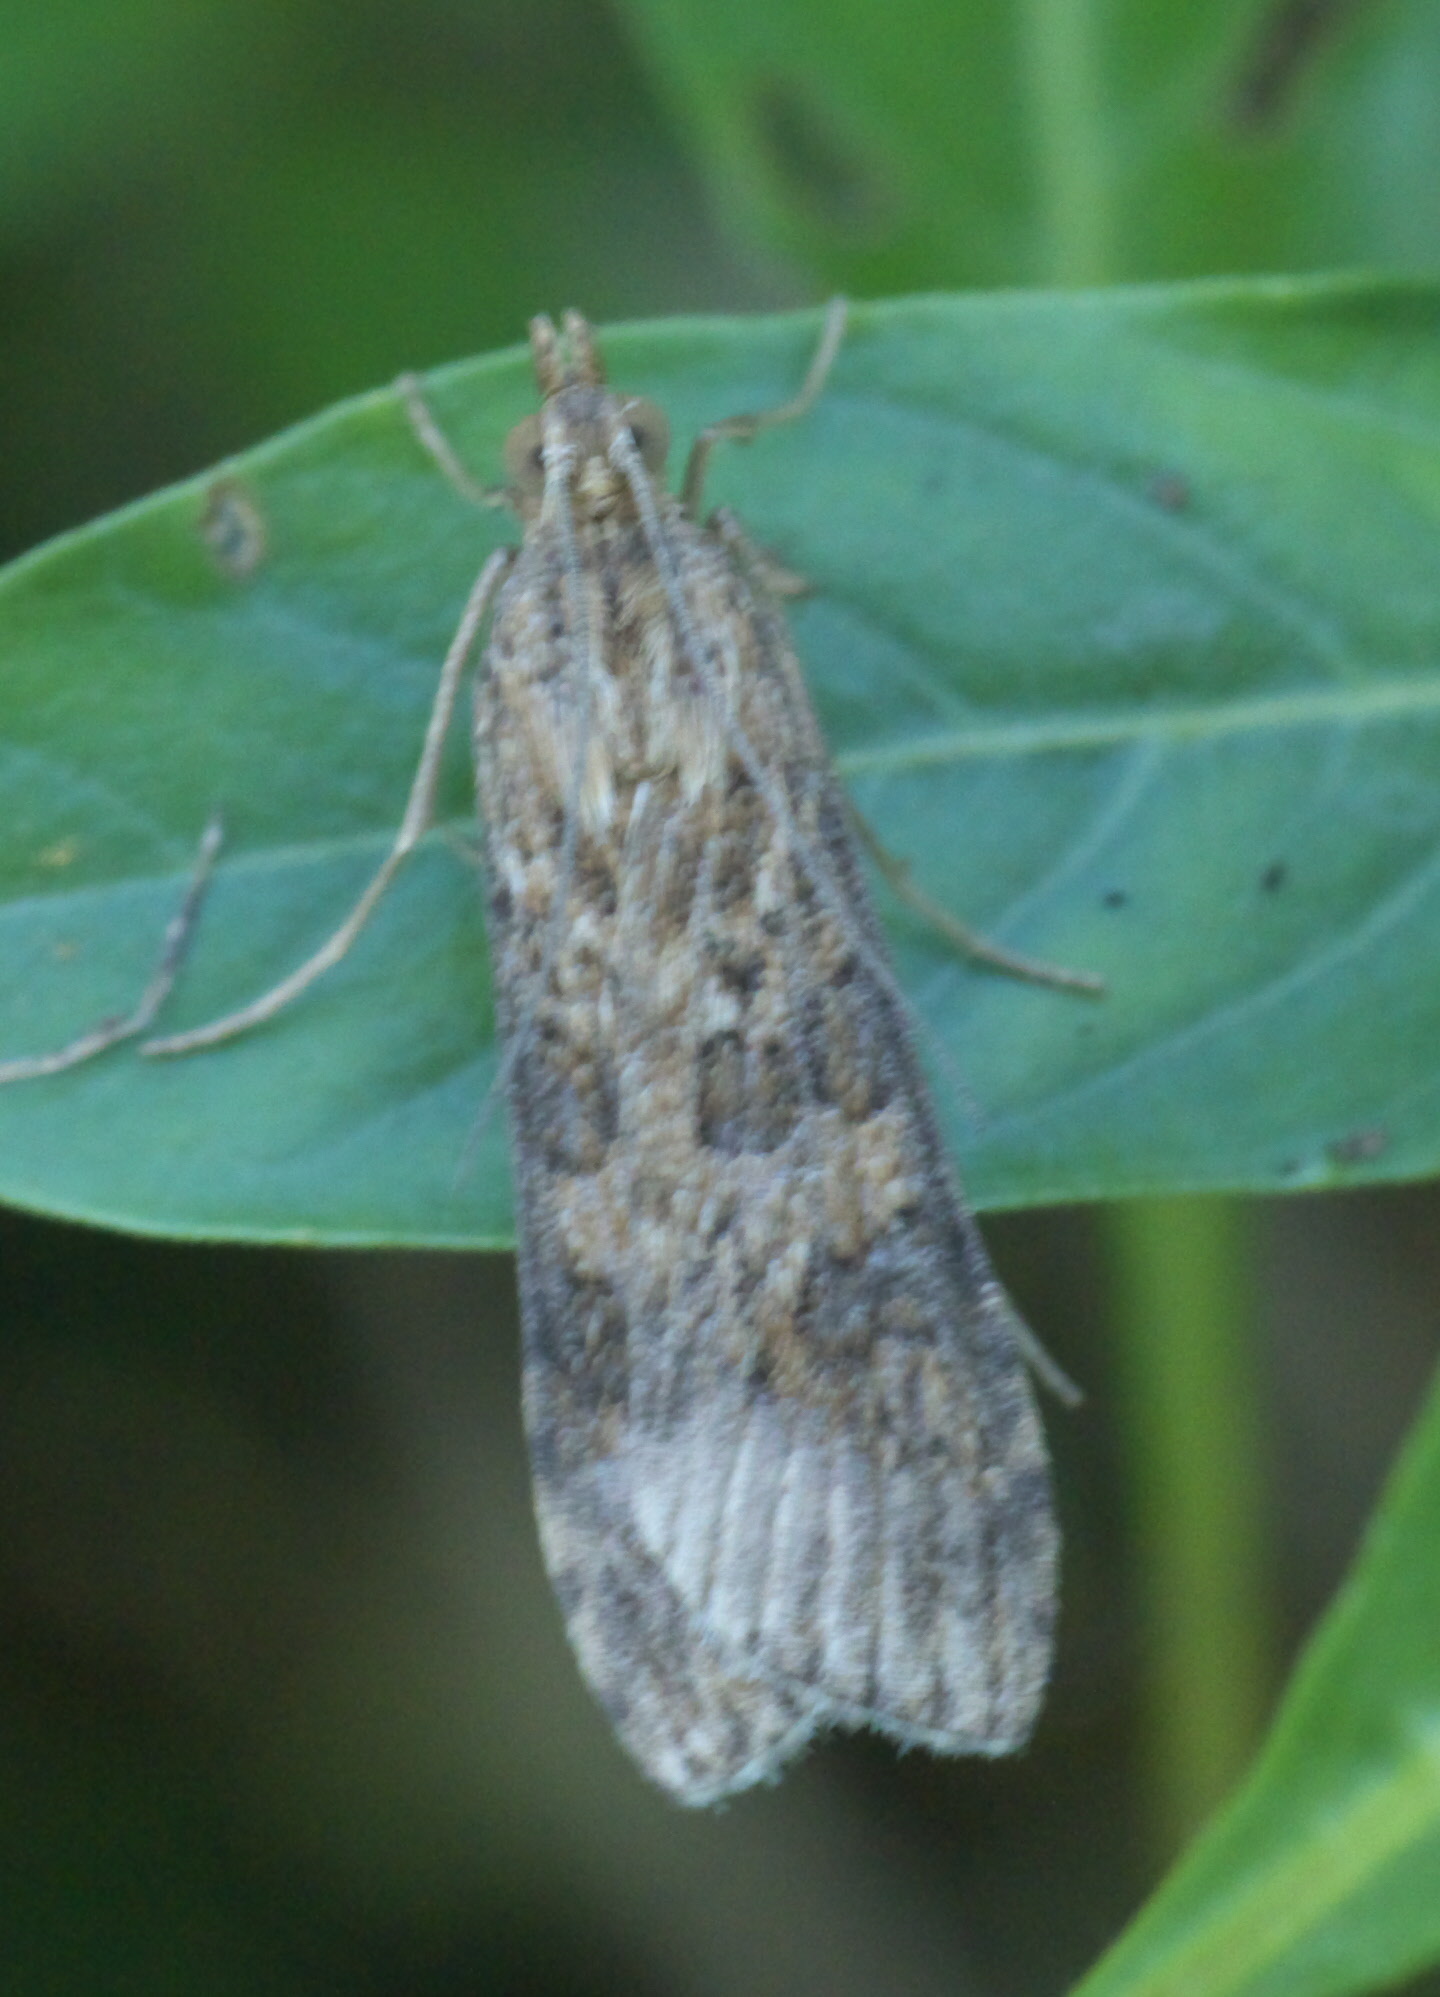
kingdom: Animalia
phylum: Arthropoda
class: Insecta
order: Lepidoptera
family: Crambidae
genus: Nomophila
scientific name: Nomophila nearctica
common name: American rush veneer
